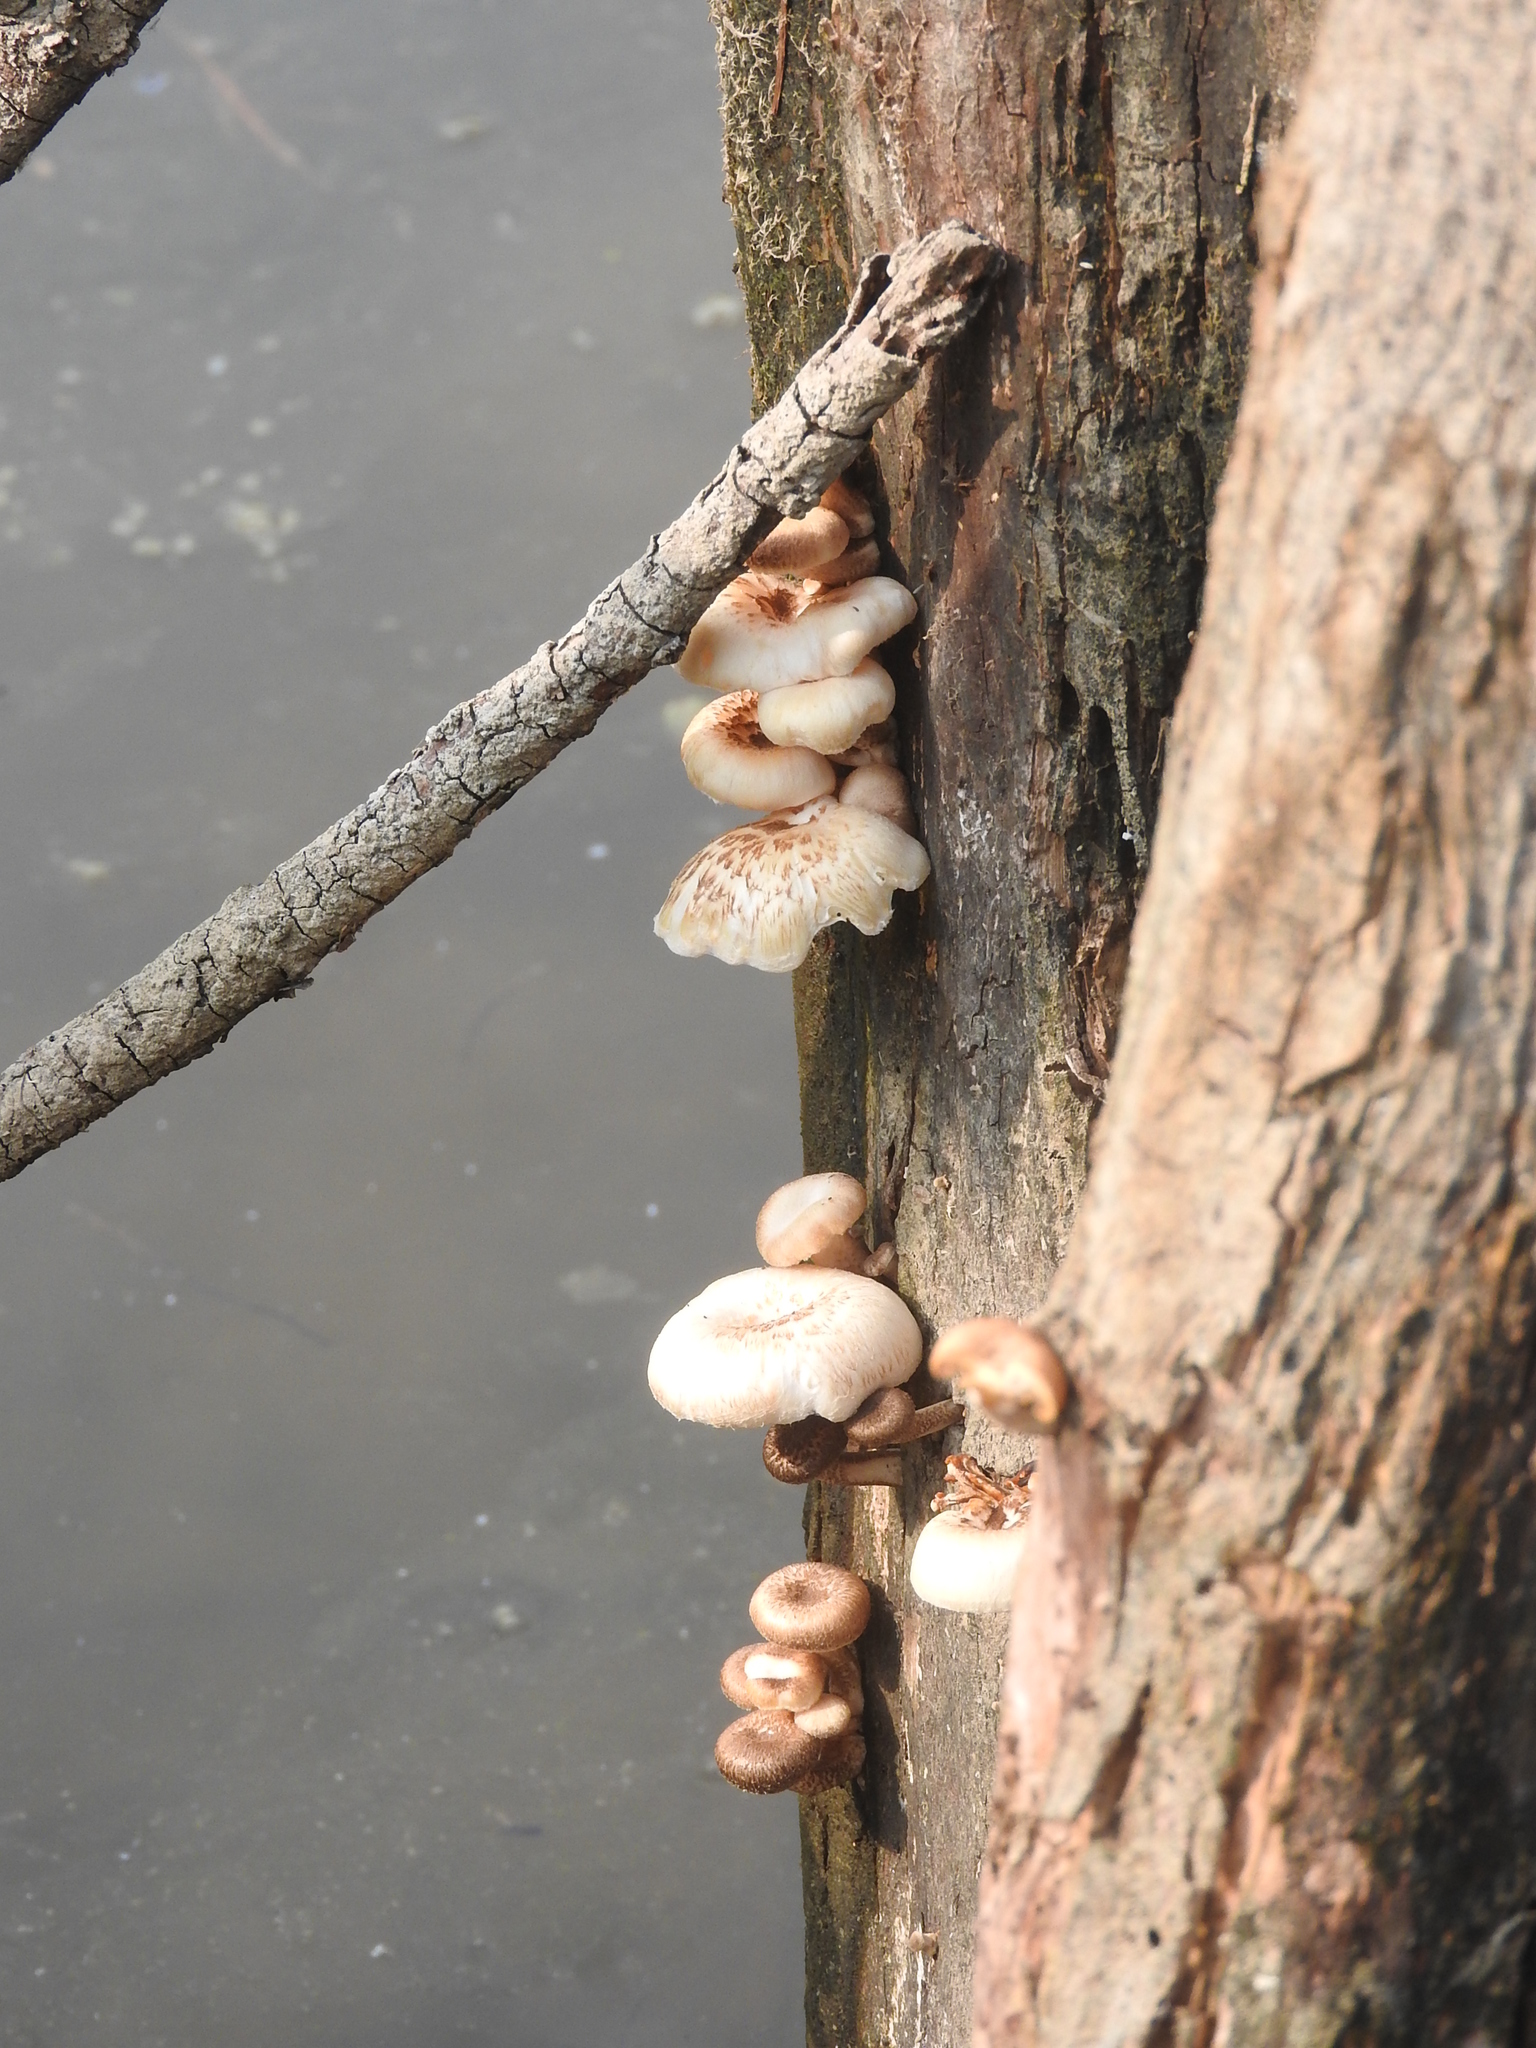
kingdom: Fungi
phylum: Basidiomycota
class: Agaricomycetes
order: Polyporales
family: Polyporaceae
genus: Lentinus
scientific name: Lentinus tigrinus
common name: Tiger sawgill
